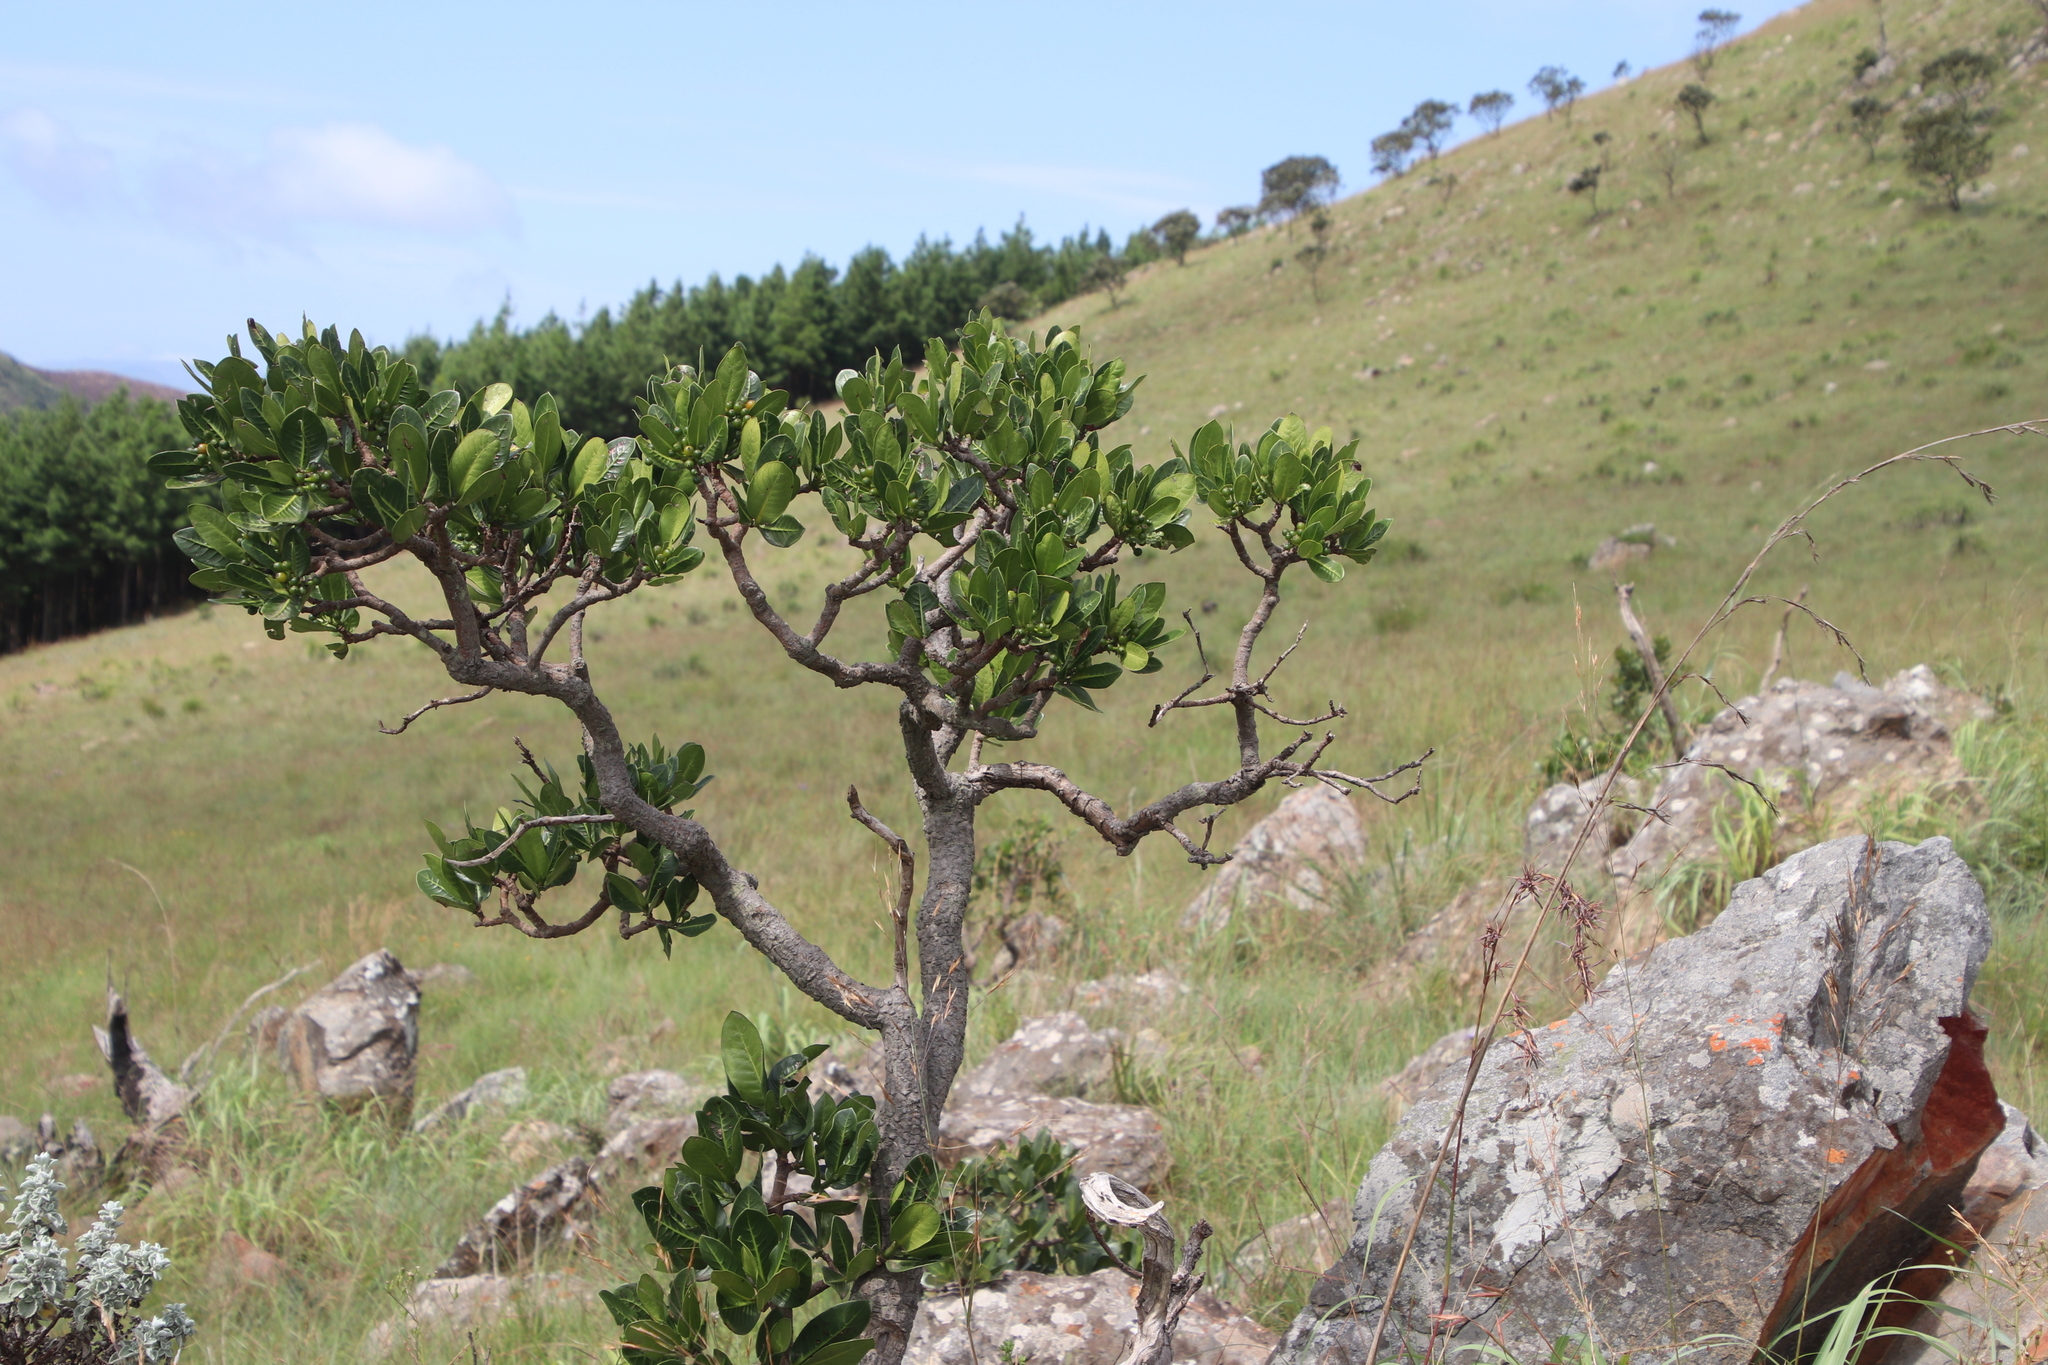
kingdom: Plantae
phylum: Tracheophyta
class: Magnoliopsida
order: Gentianales
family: Rubiaceae
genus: Psychotria
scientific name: Psychotria
